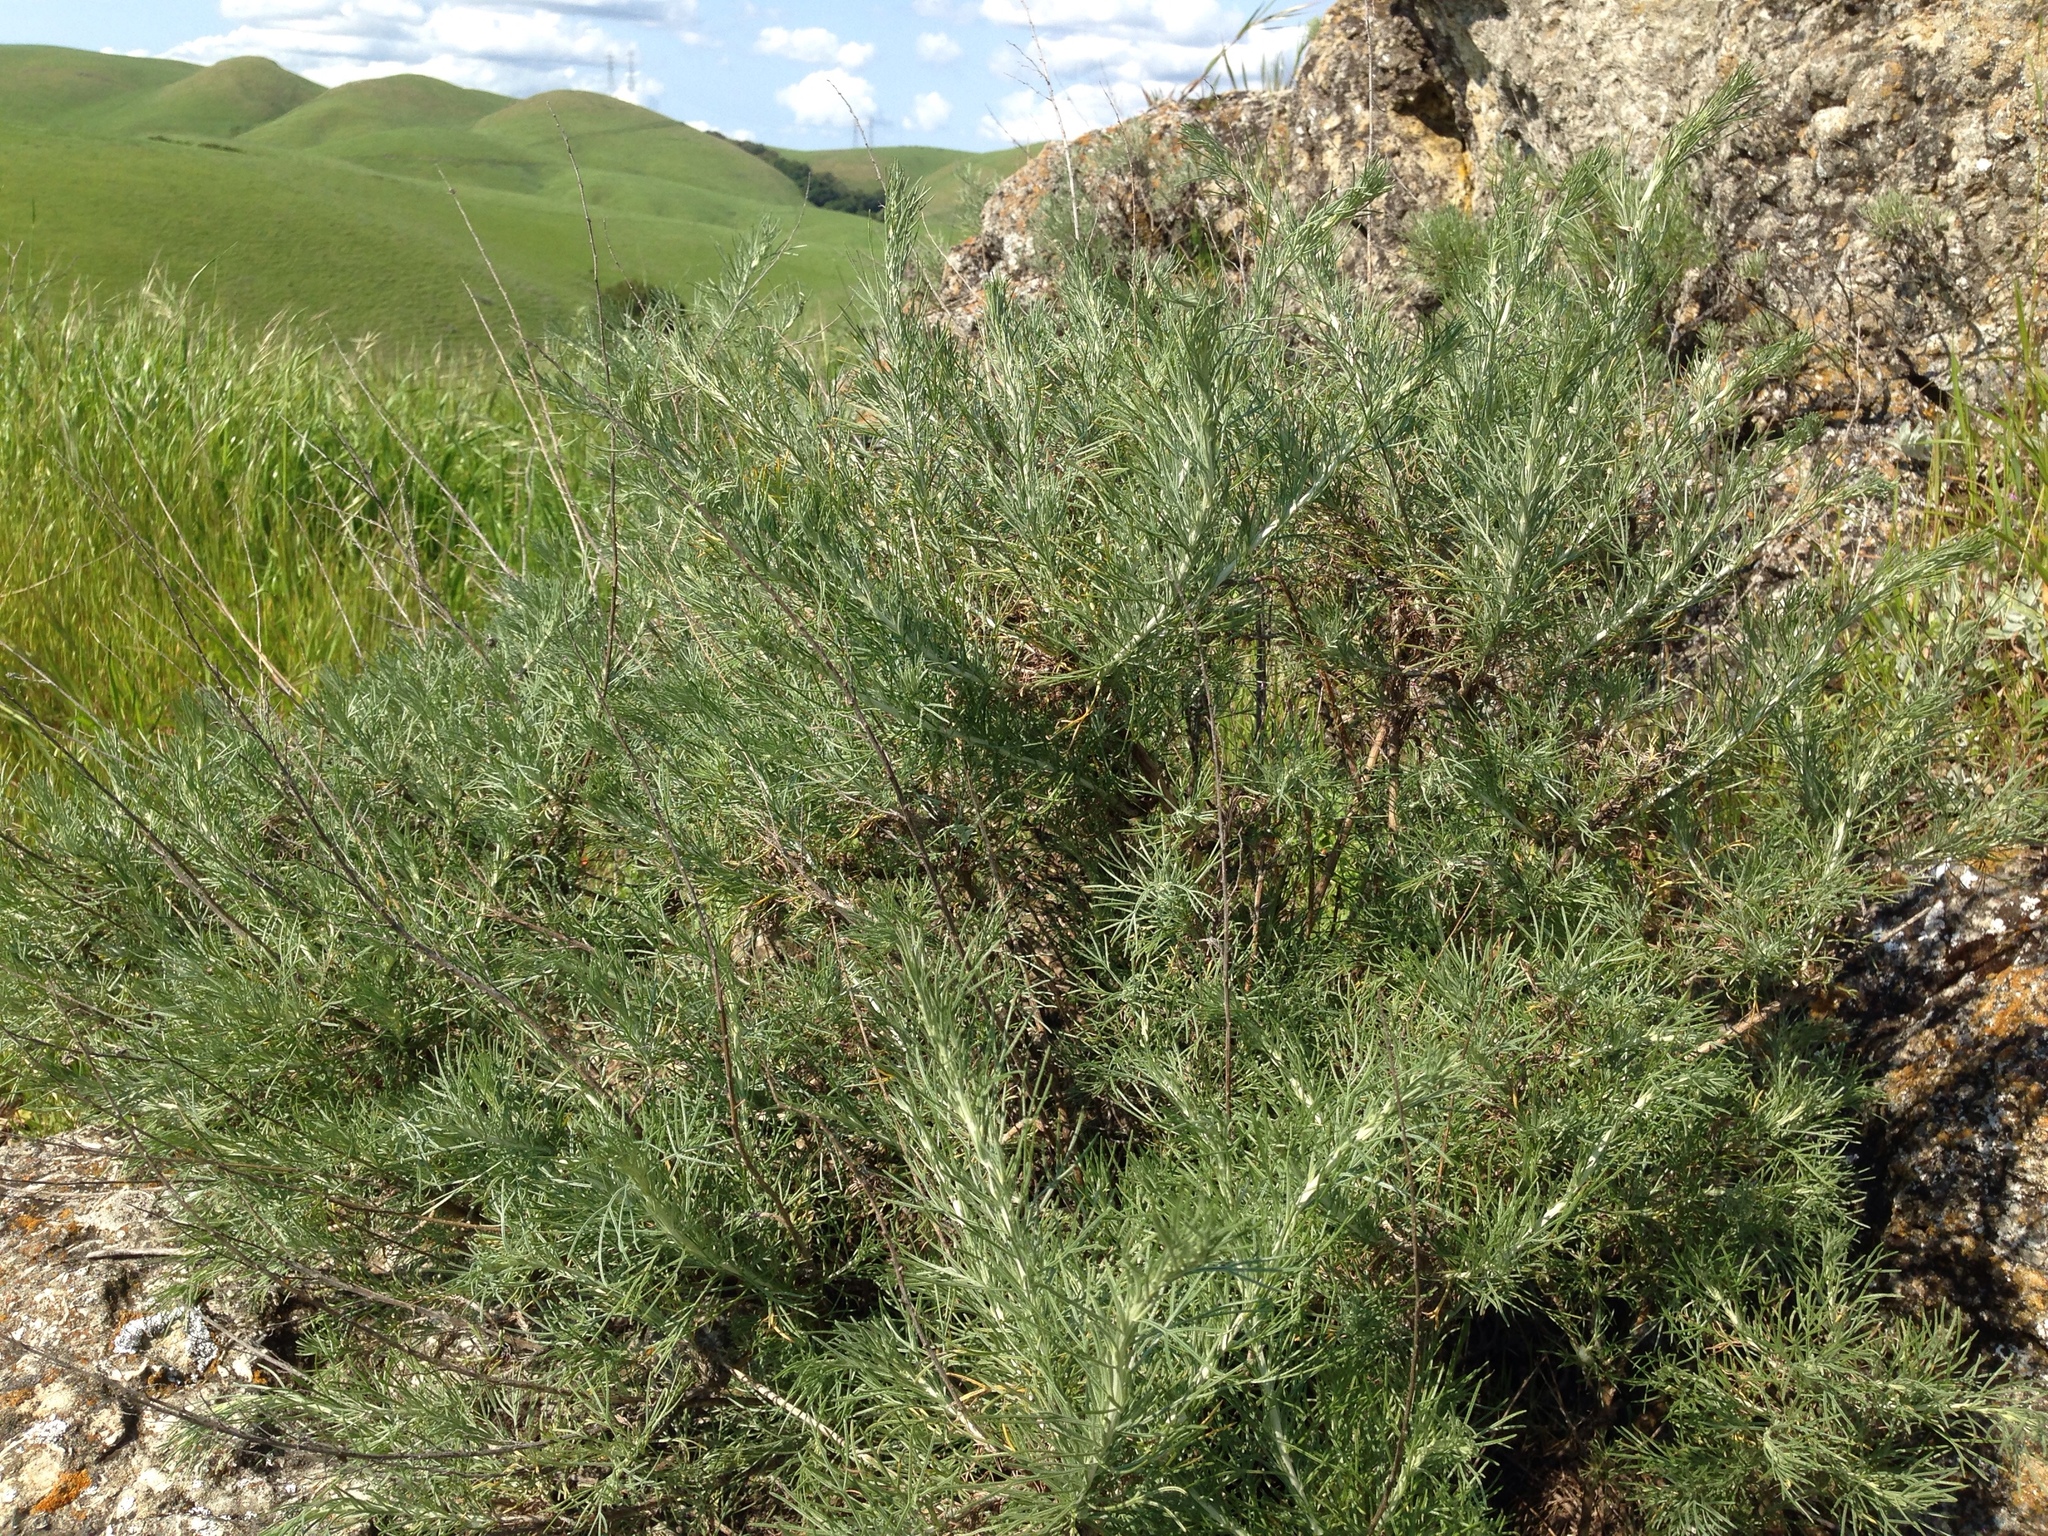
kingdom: Plantae
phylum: Tracheophyta
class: Magnoliopsida
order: Asterales
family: Asteraceae
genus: Artemisia
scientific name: Artemisia californica
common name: California sagebrush
